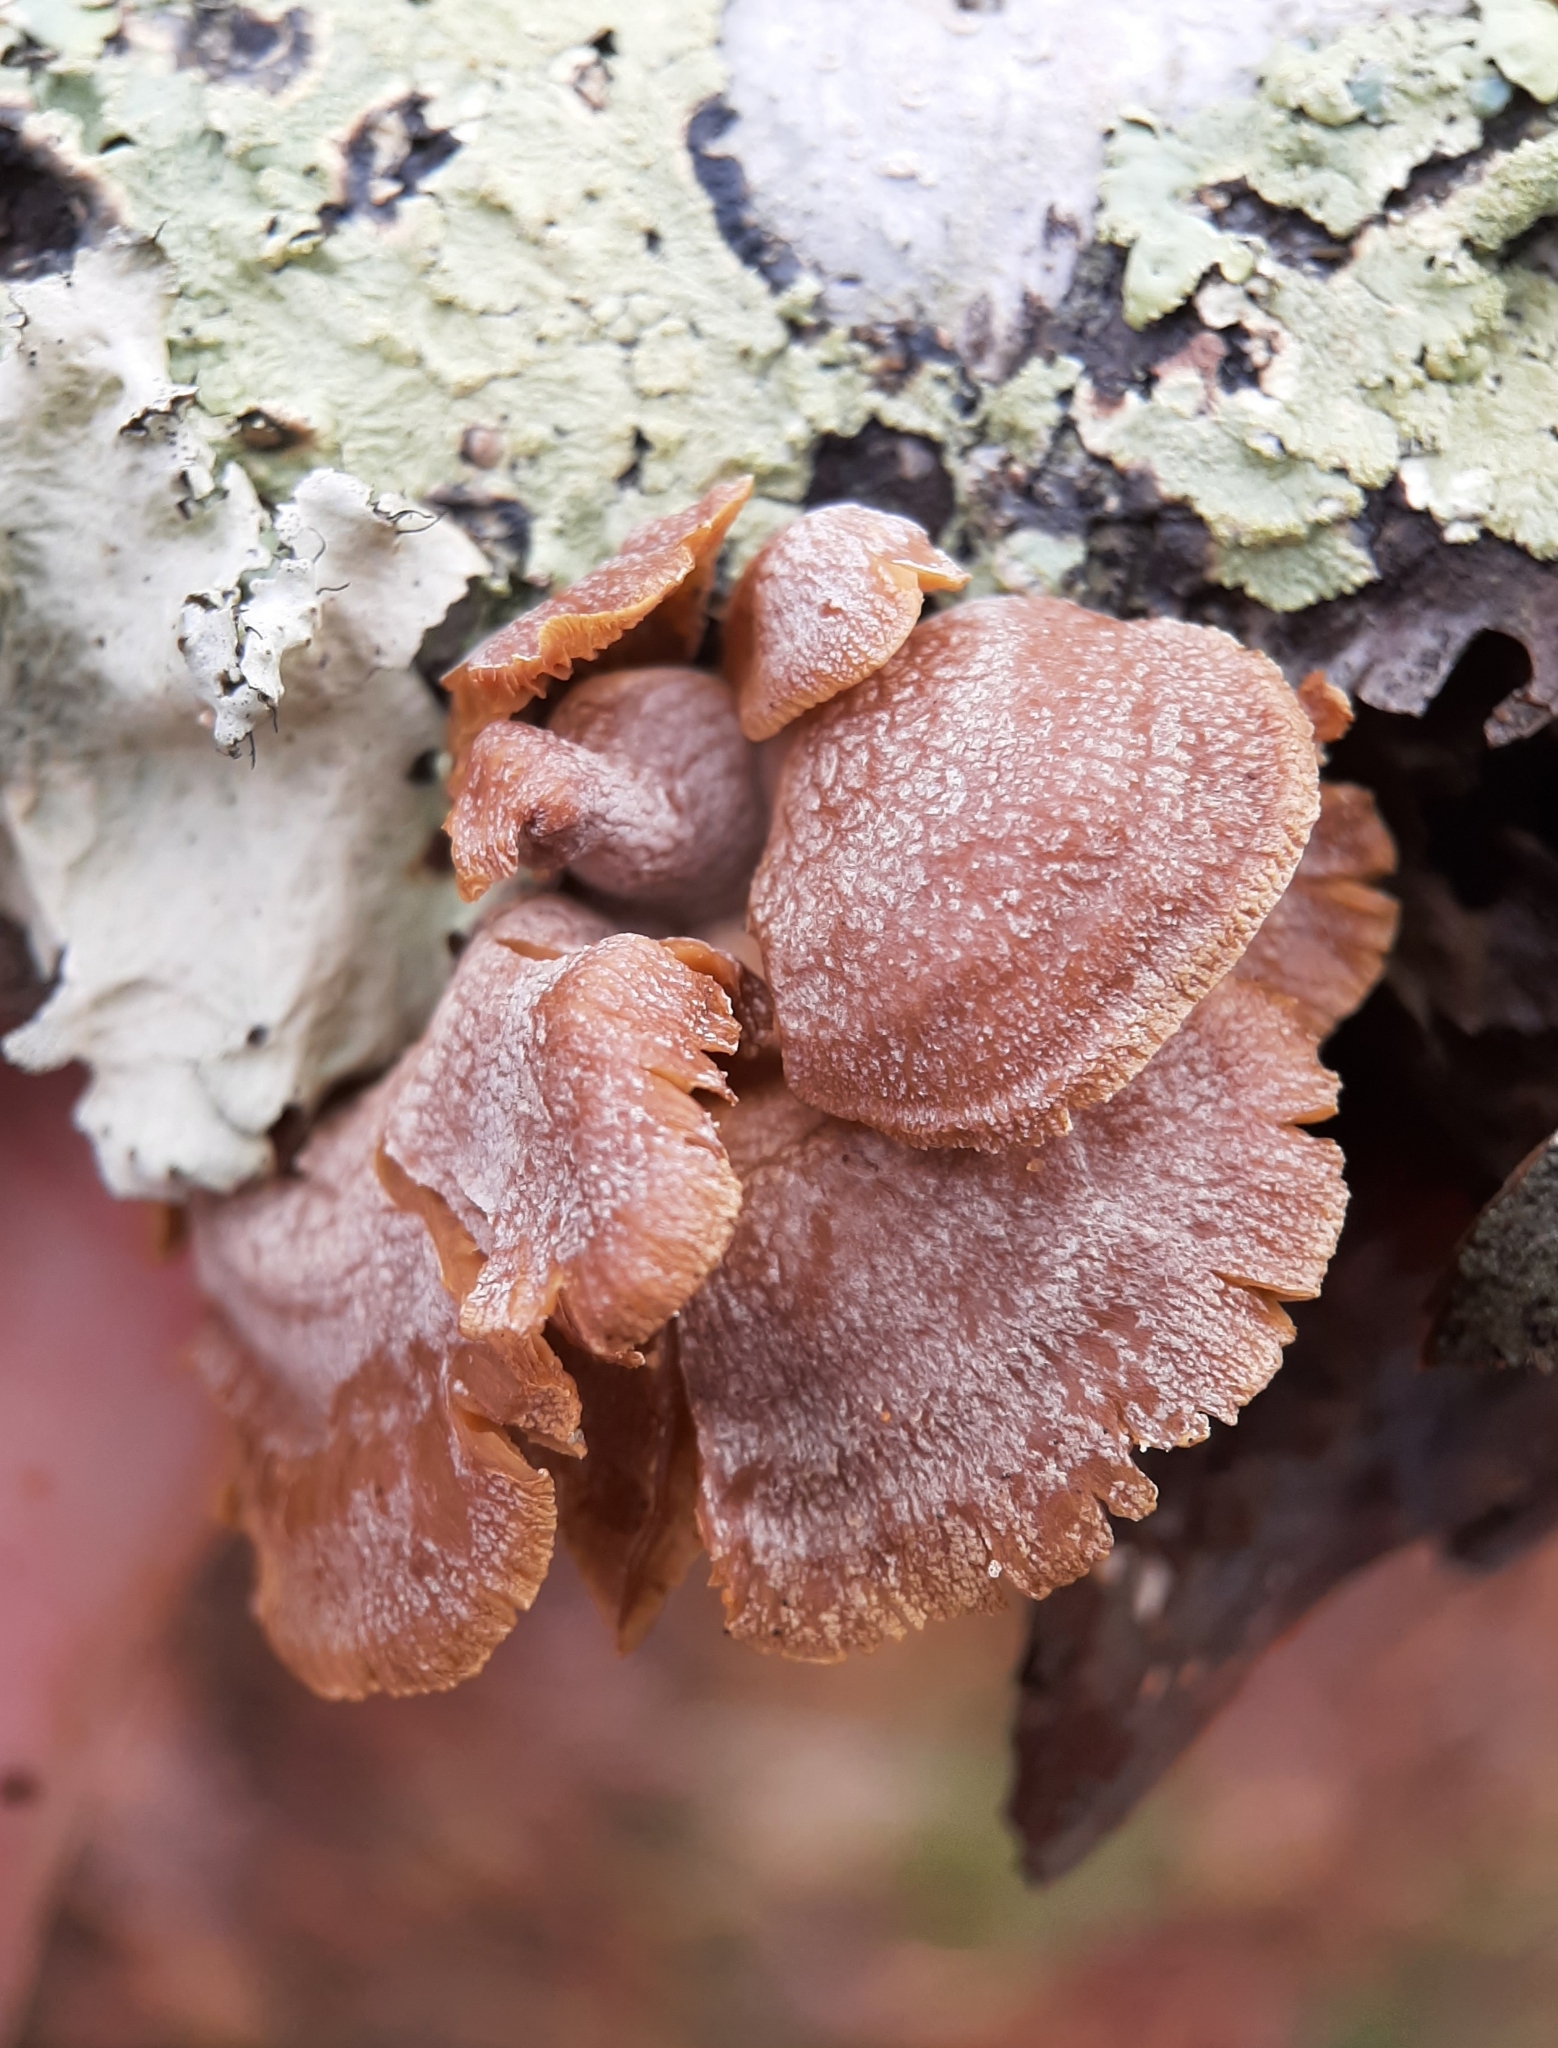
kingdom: Fungi
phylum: Basidiomycota
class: Agaricomycetes
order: Agaricales
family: Mycenaceae
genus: Panellus
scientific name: Panellus stipticus
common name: Bitter oysterling
